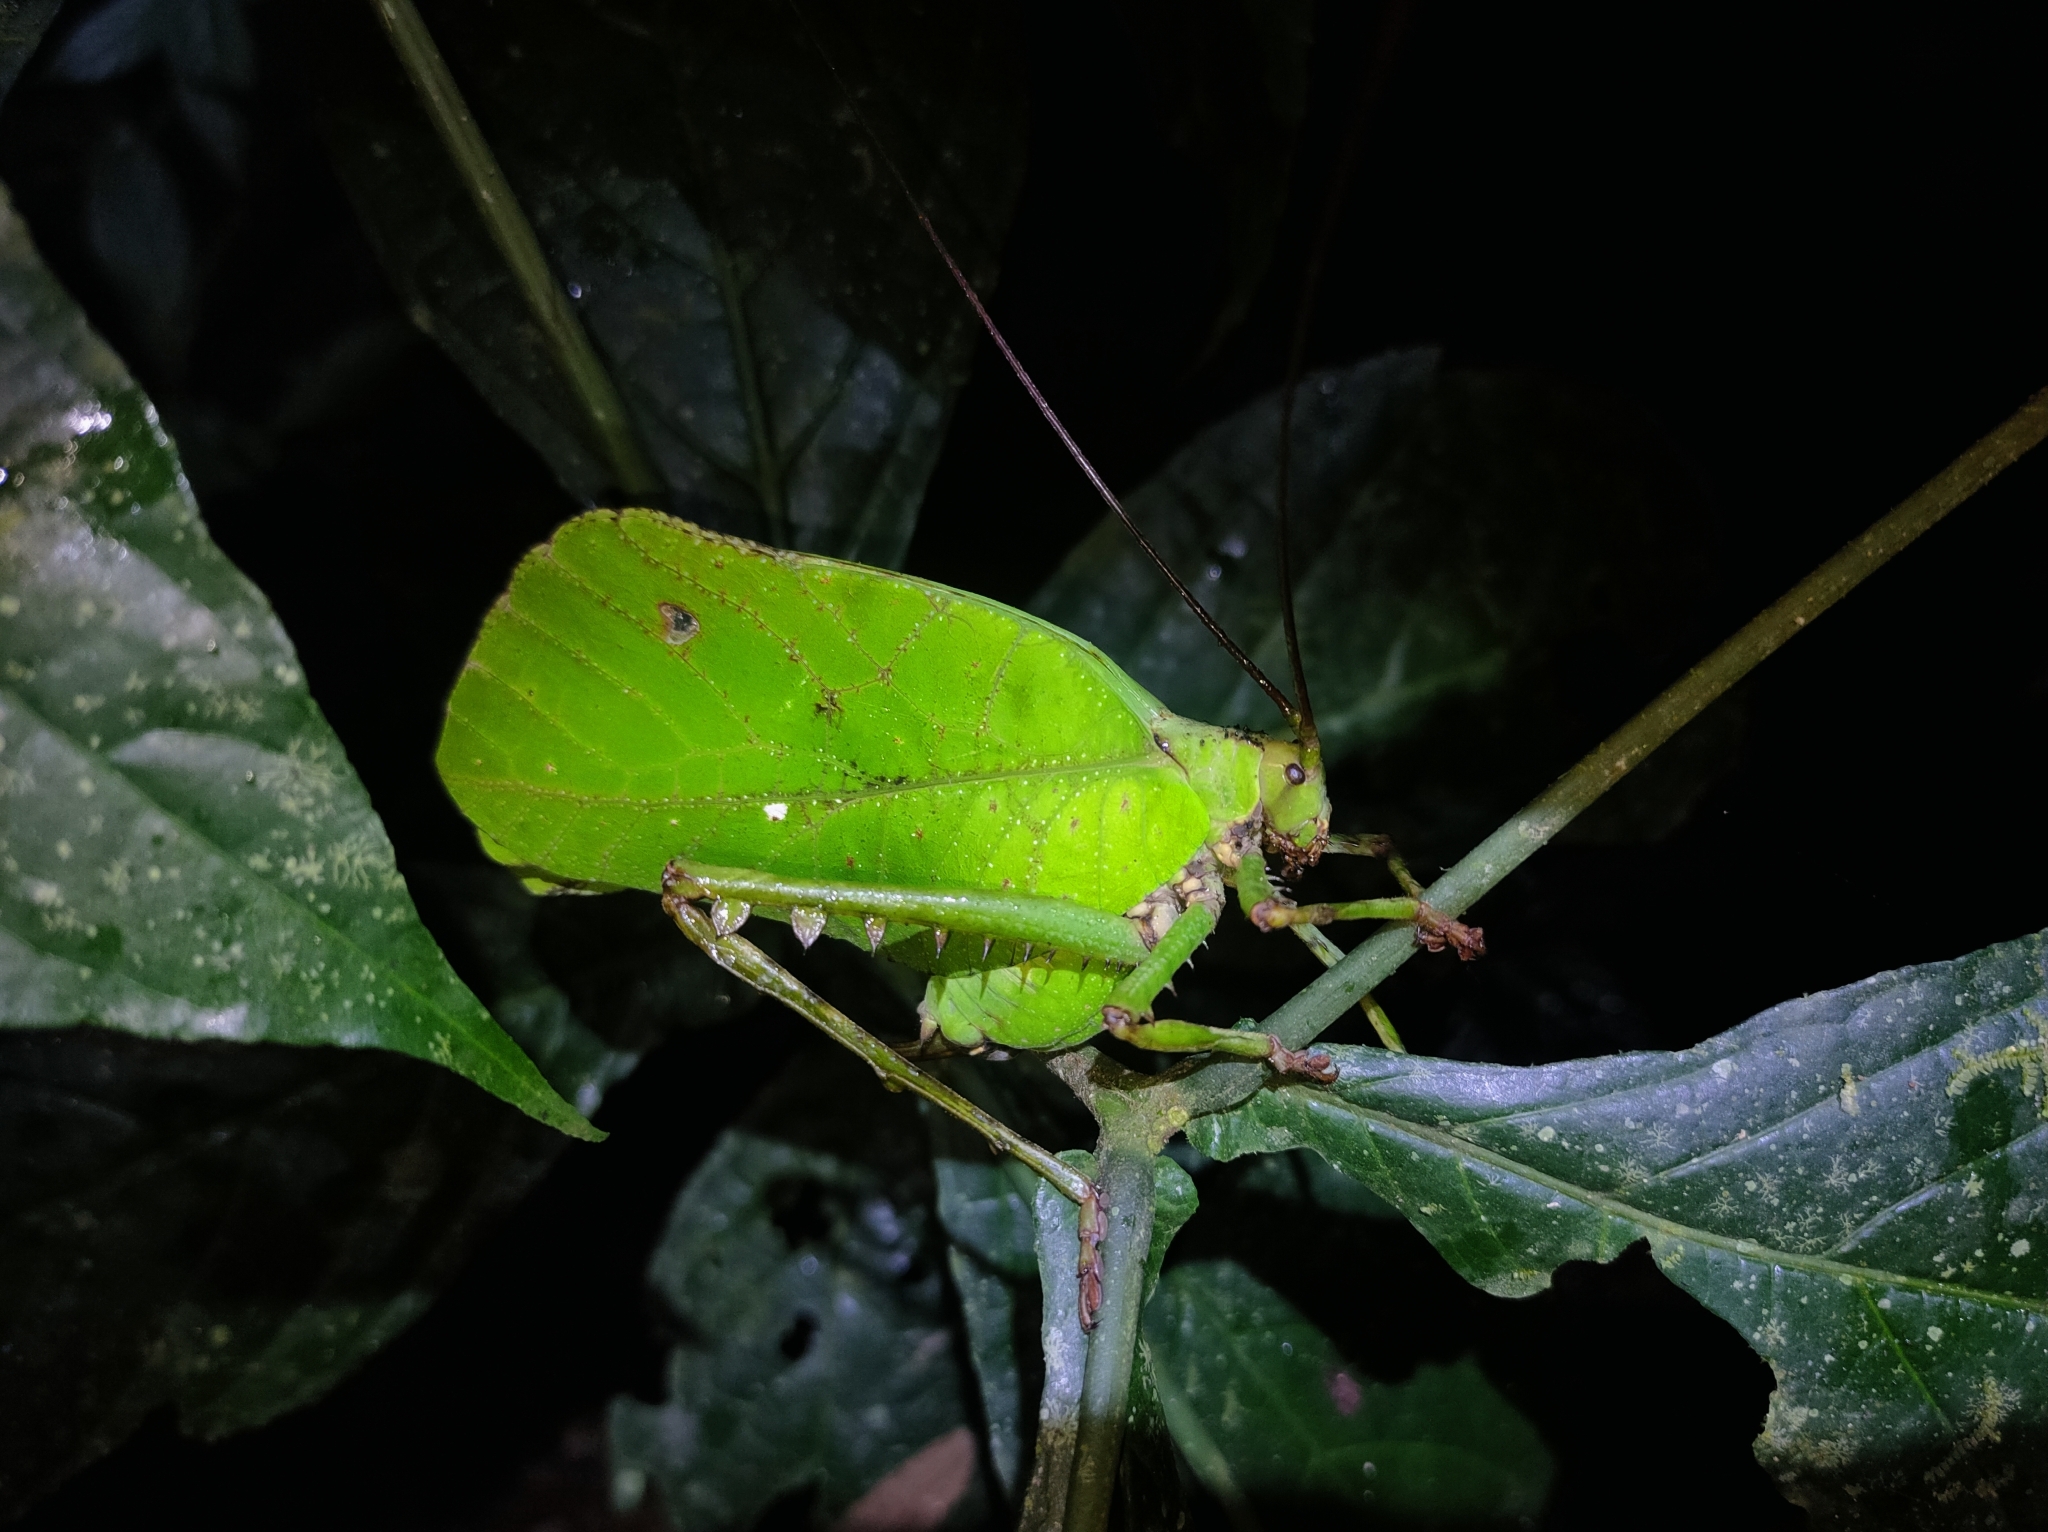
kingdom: Animalia
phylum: Arthropoda
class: Insecta
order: Orthoptera
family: Tettigoniidae
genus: Celidophylla
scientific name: Celidophylla albimacula
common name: Giant sylvan leaf katydid
